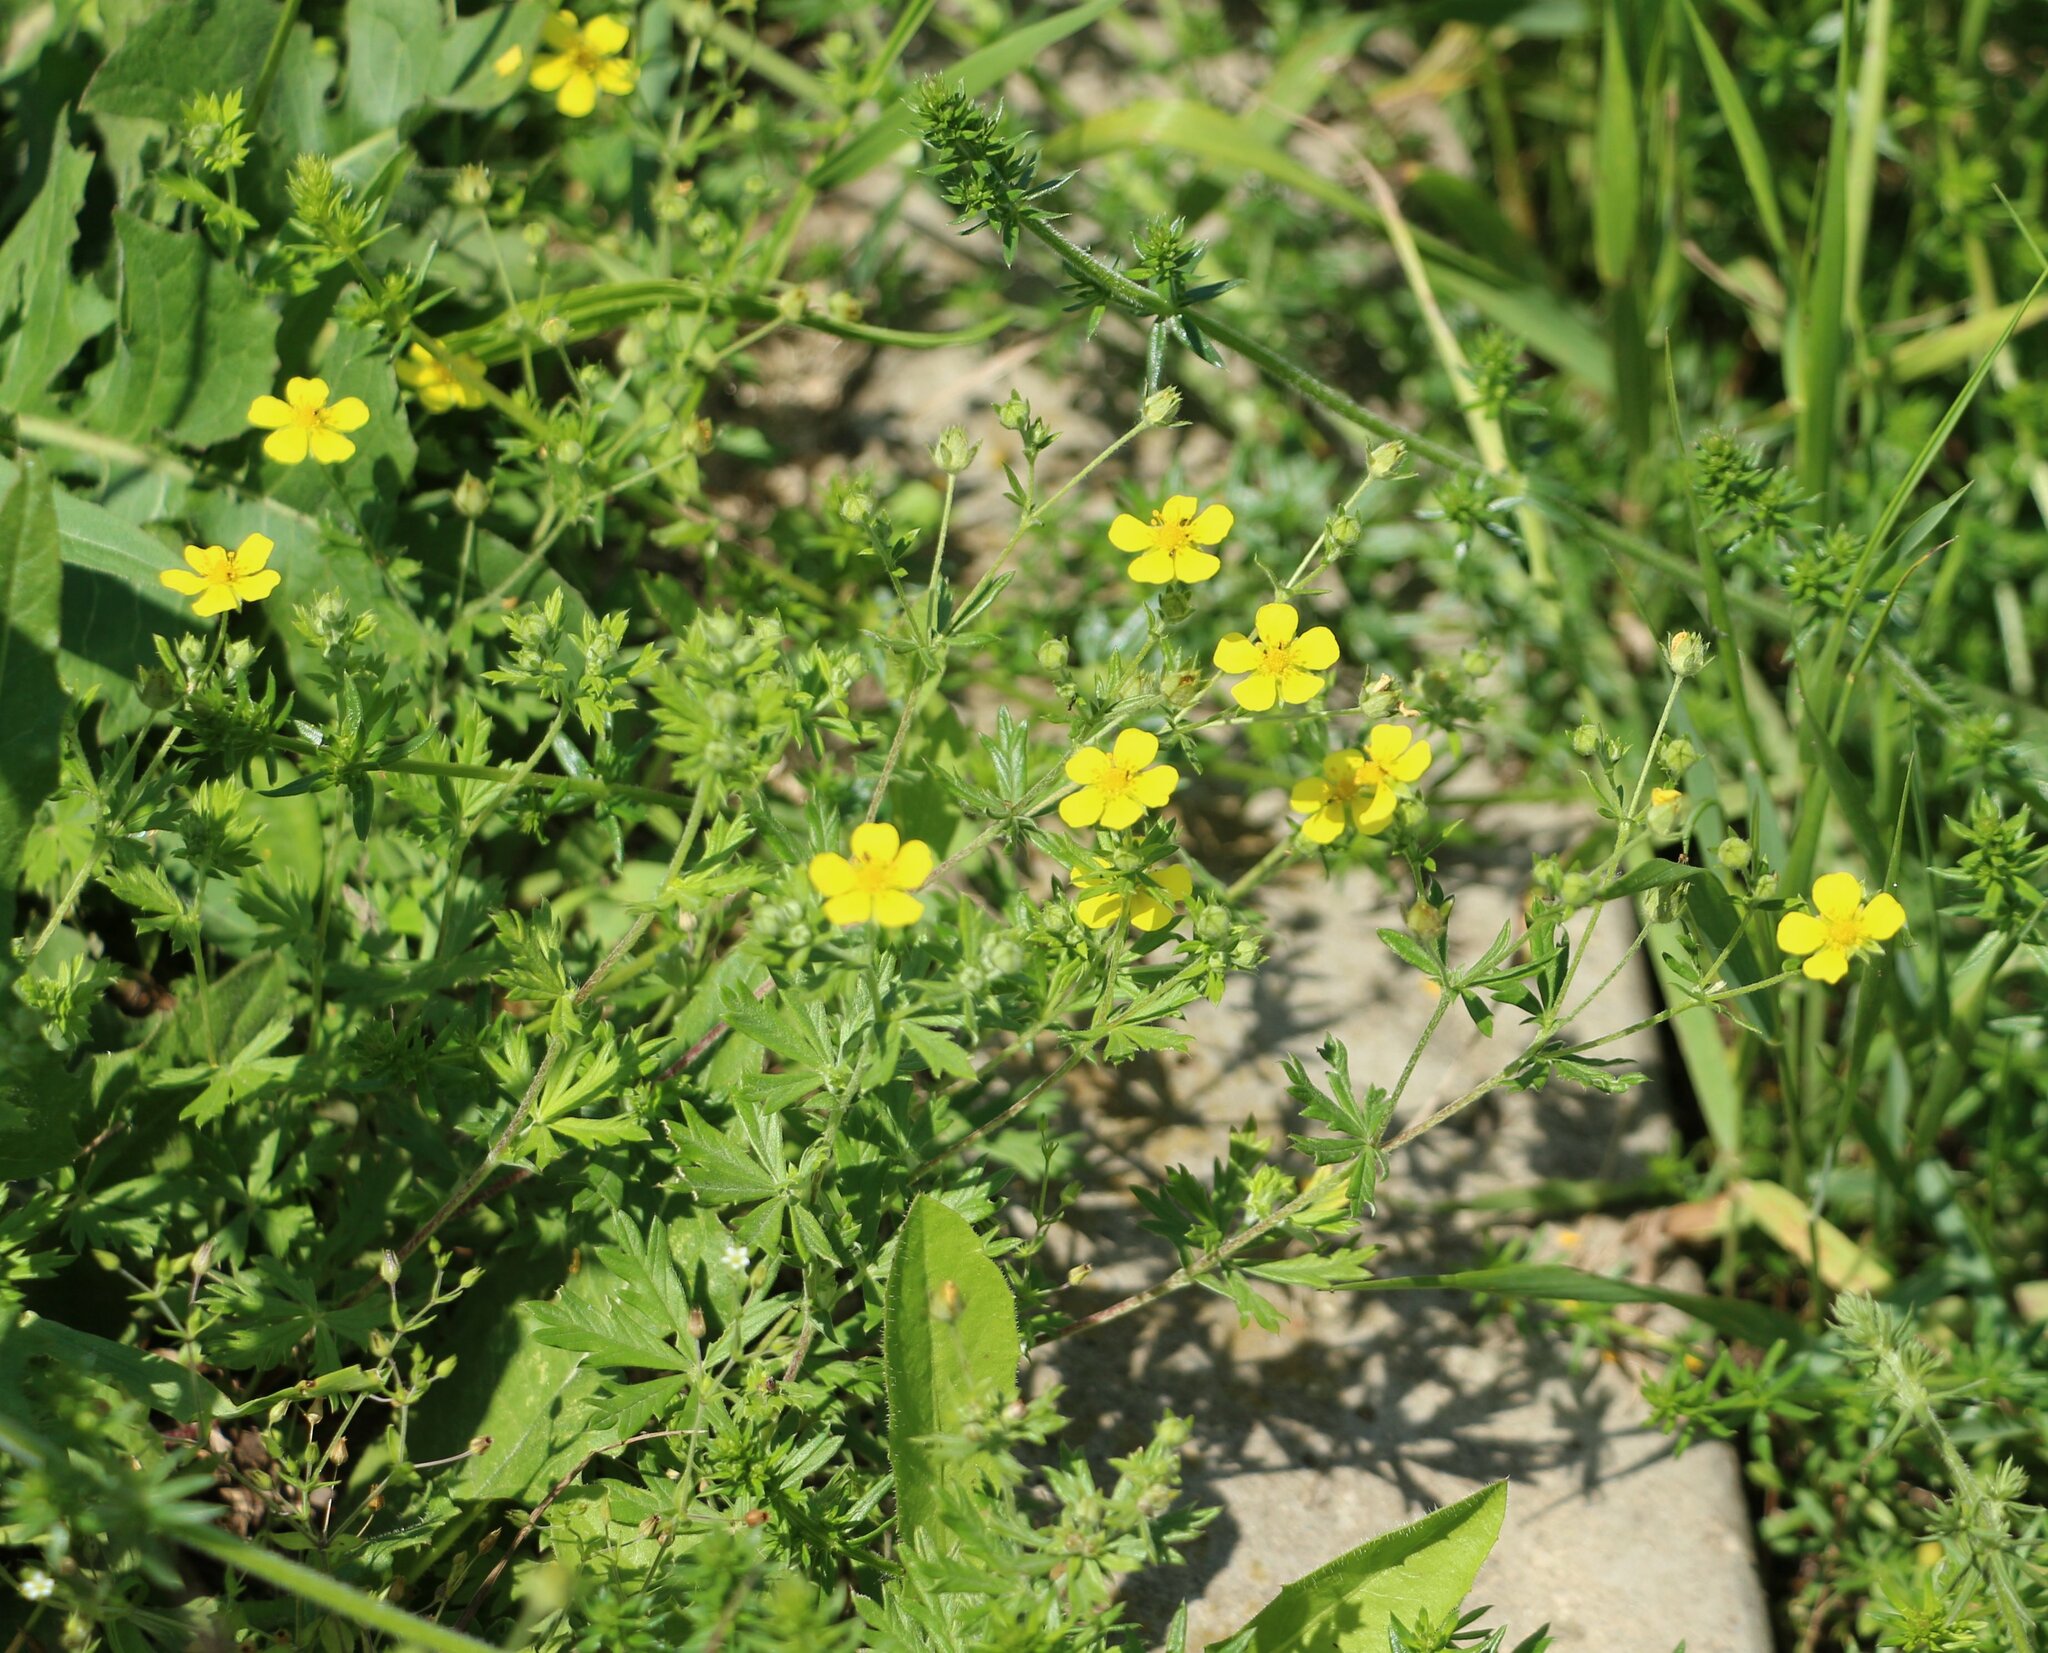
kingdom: Plantae
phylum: Tracheophyta
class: Magnoliopsida
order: Rosales
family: Rosaceae
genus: Potentilla
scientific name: Potentilla argentea
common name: Hoary cinquefoil
